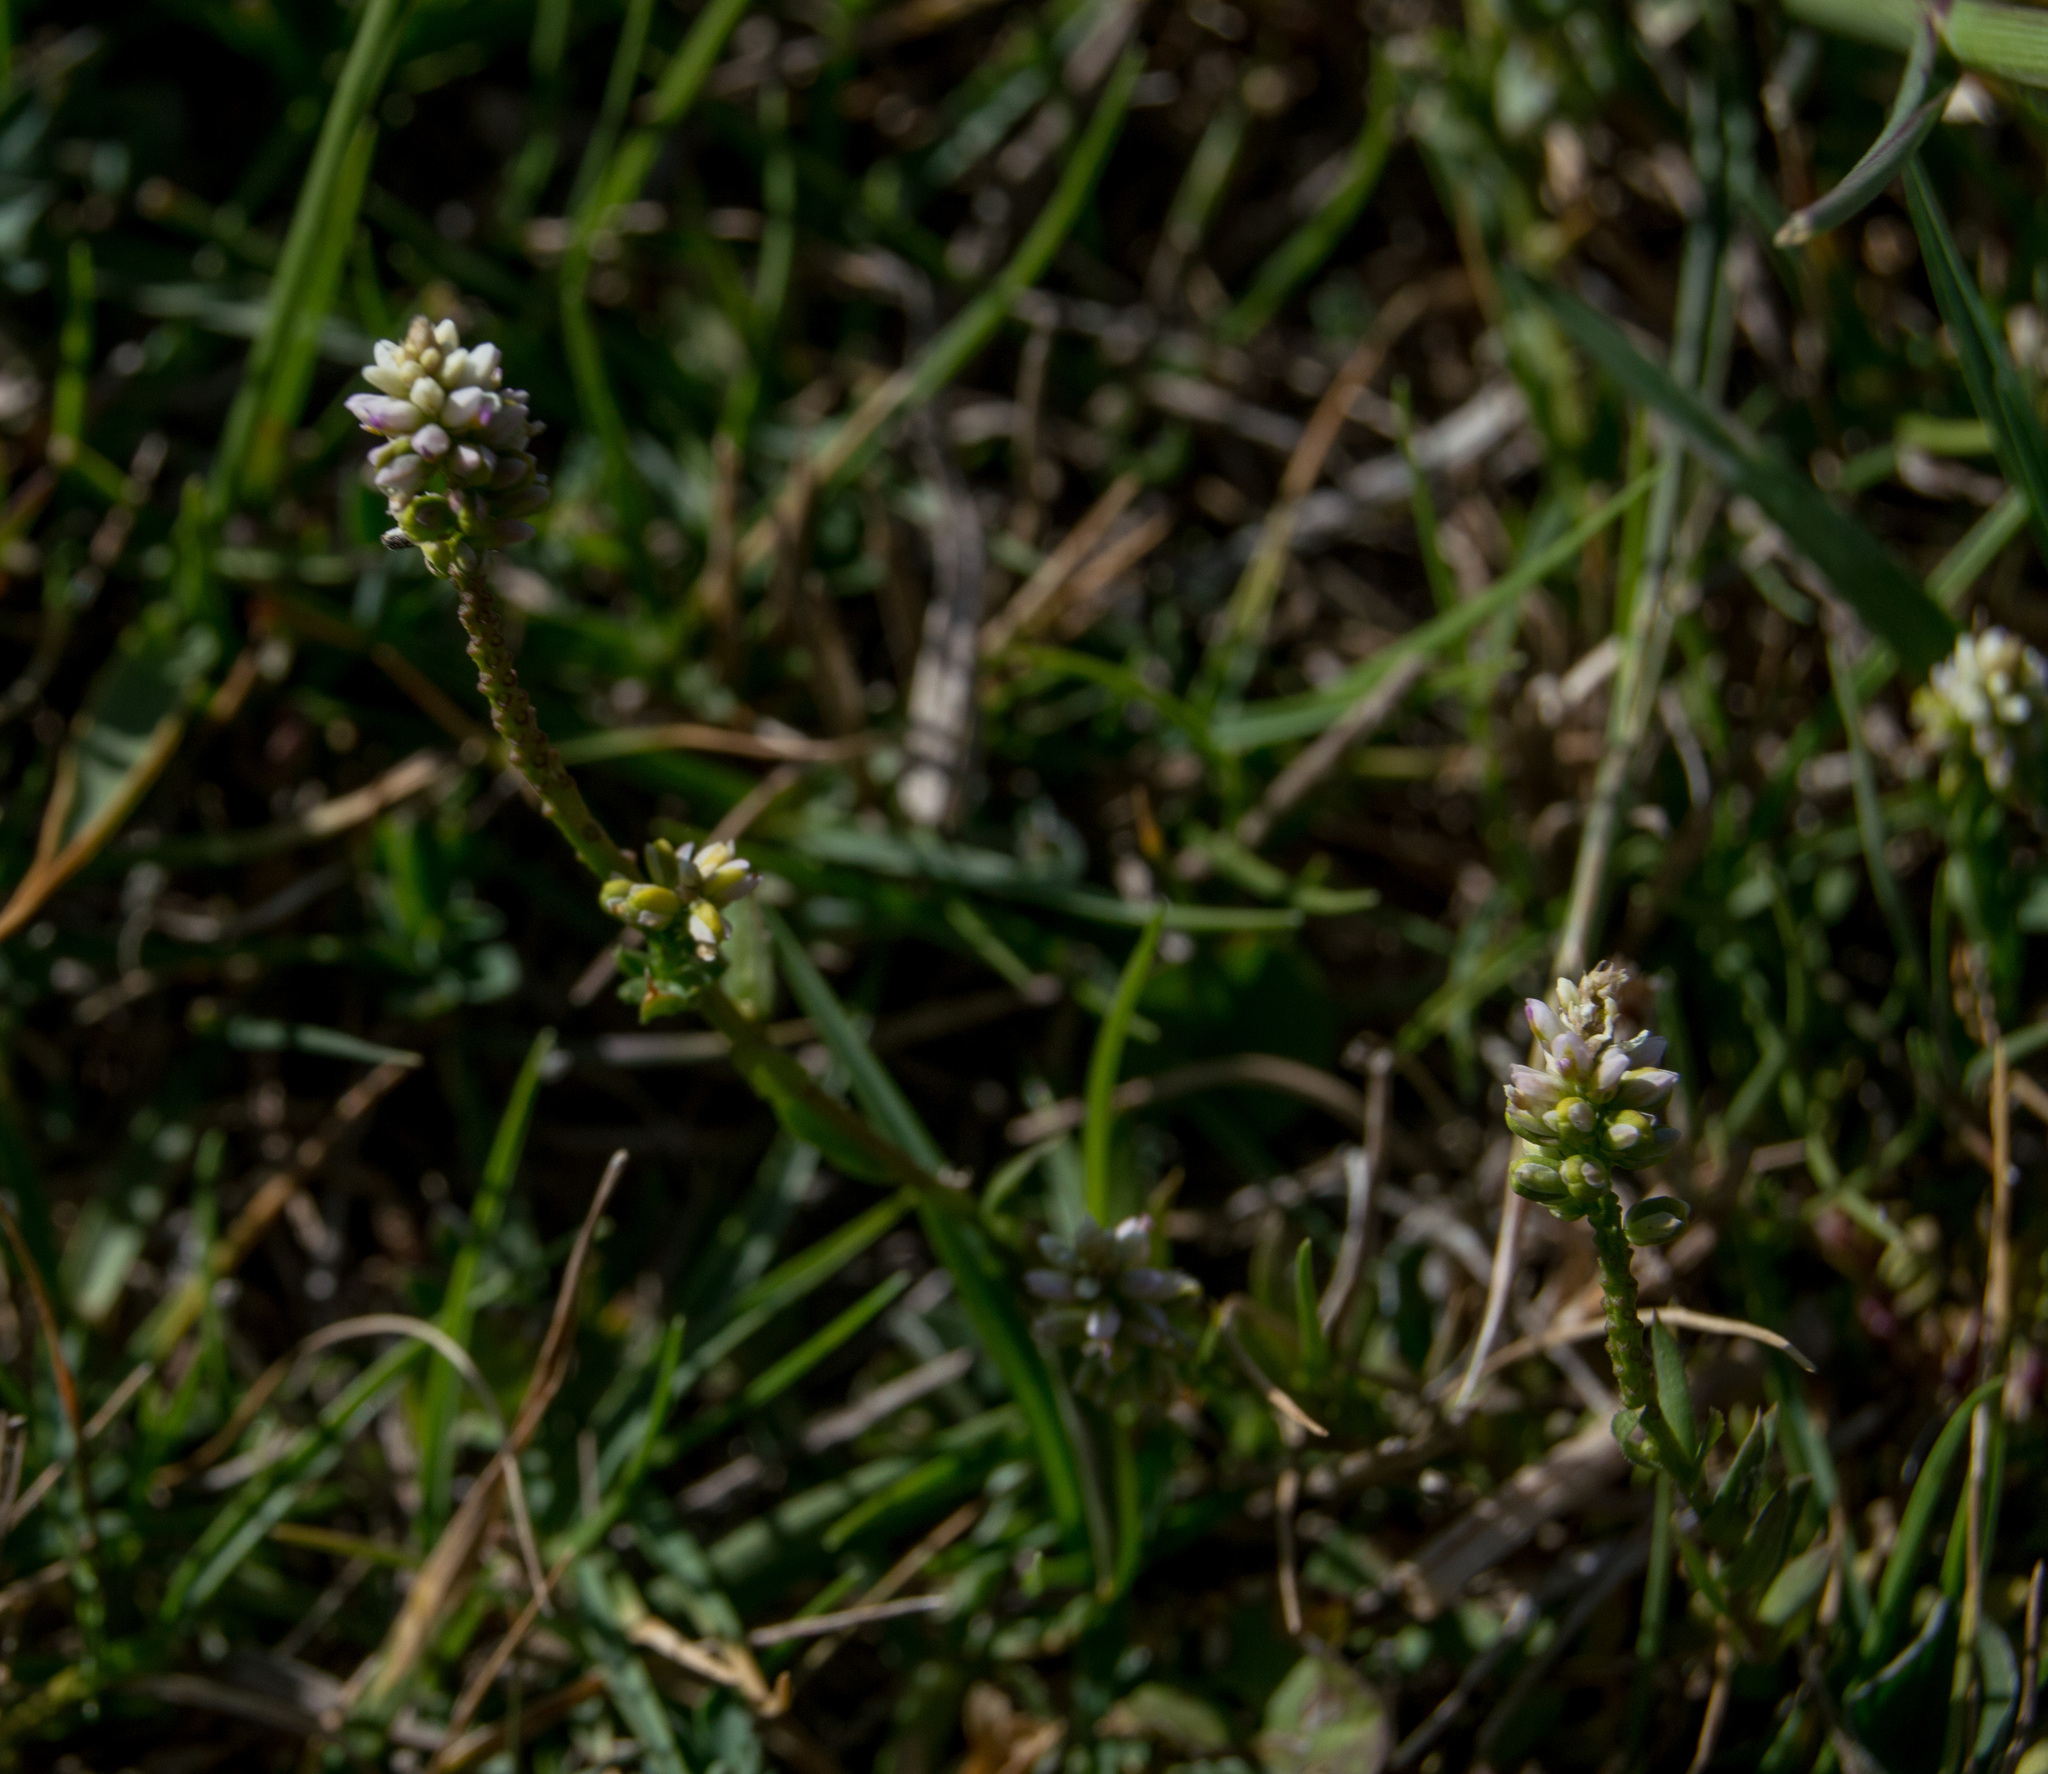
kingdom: Plantae
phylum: Tracheophyta
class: Magnoliopsida
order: Fabales
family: Polygalaceae
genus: Polygala
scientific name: Polygala australis
